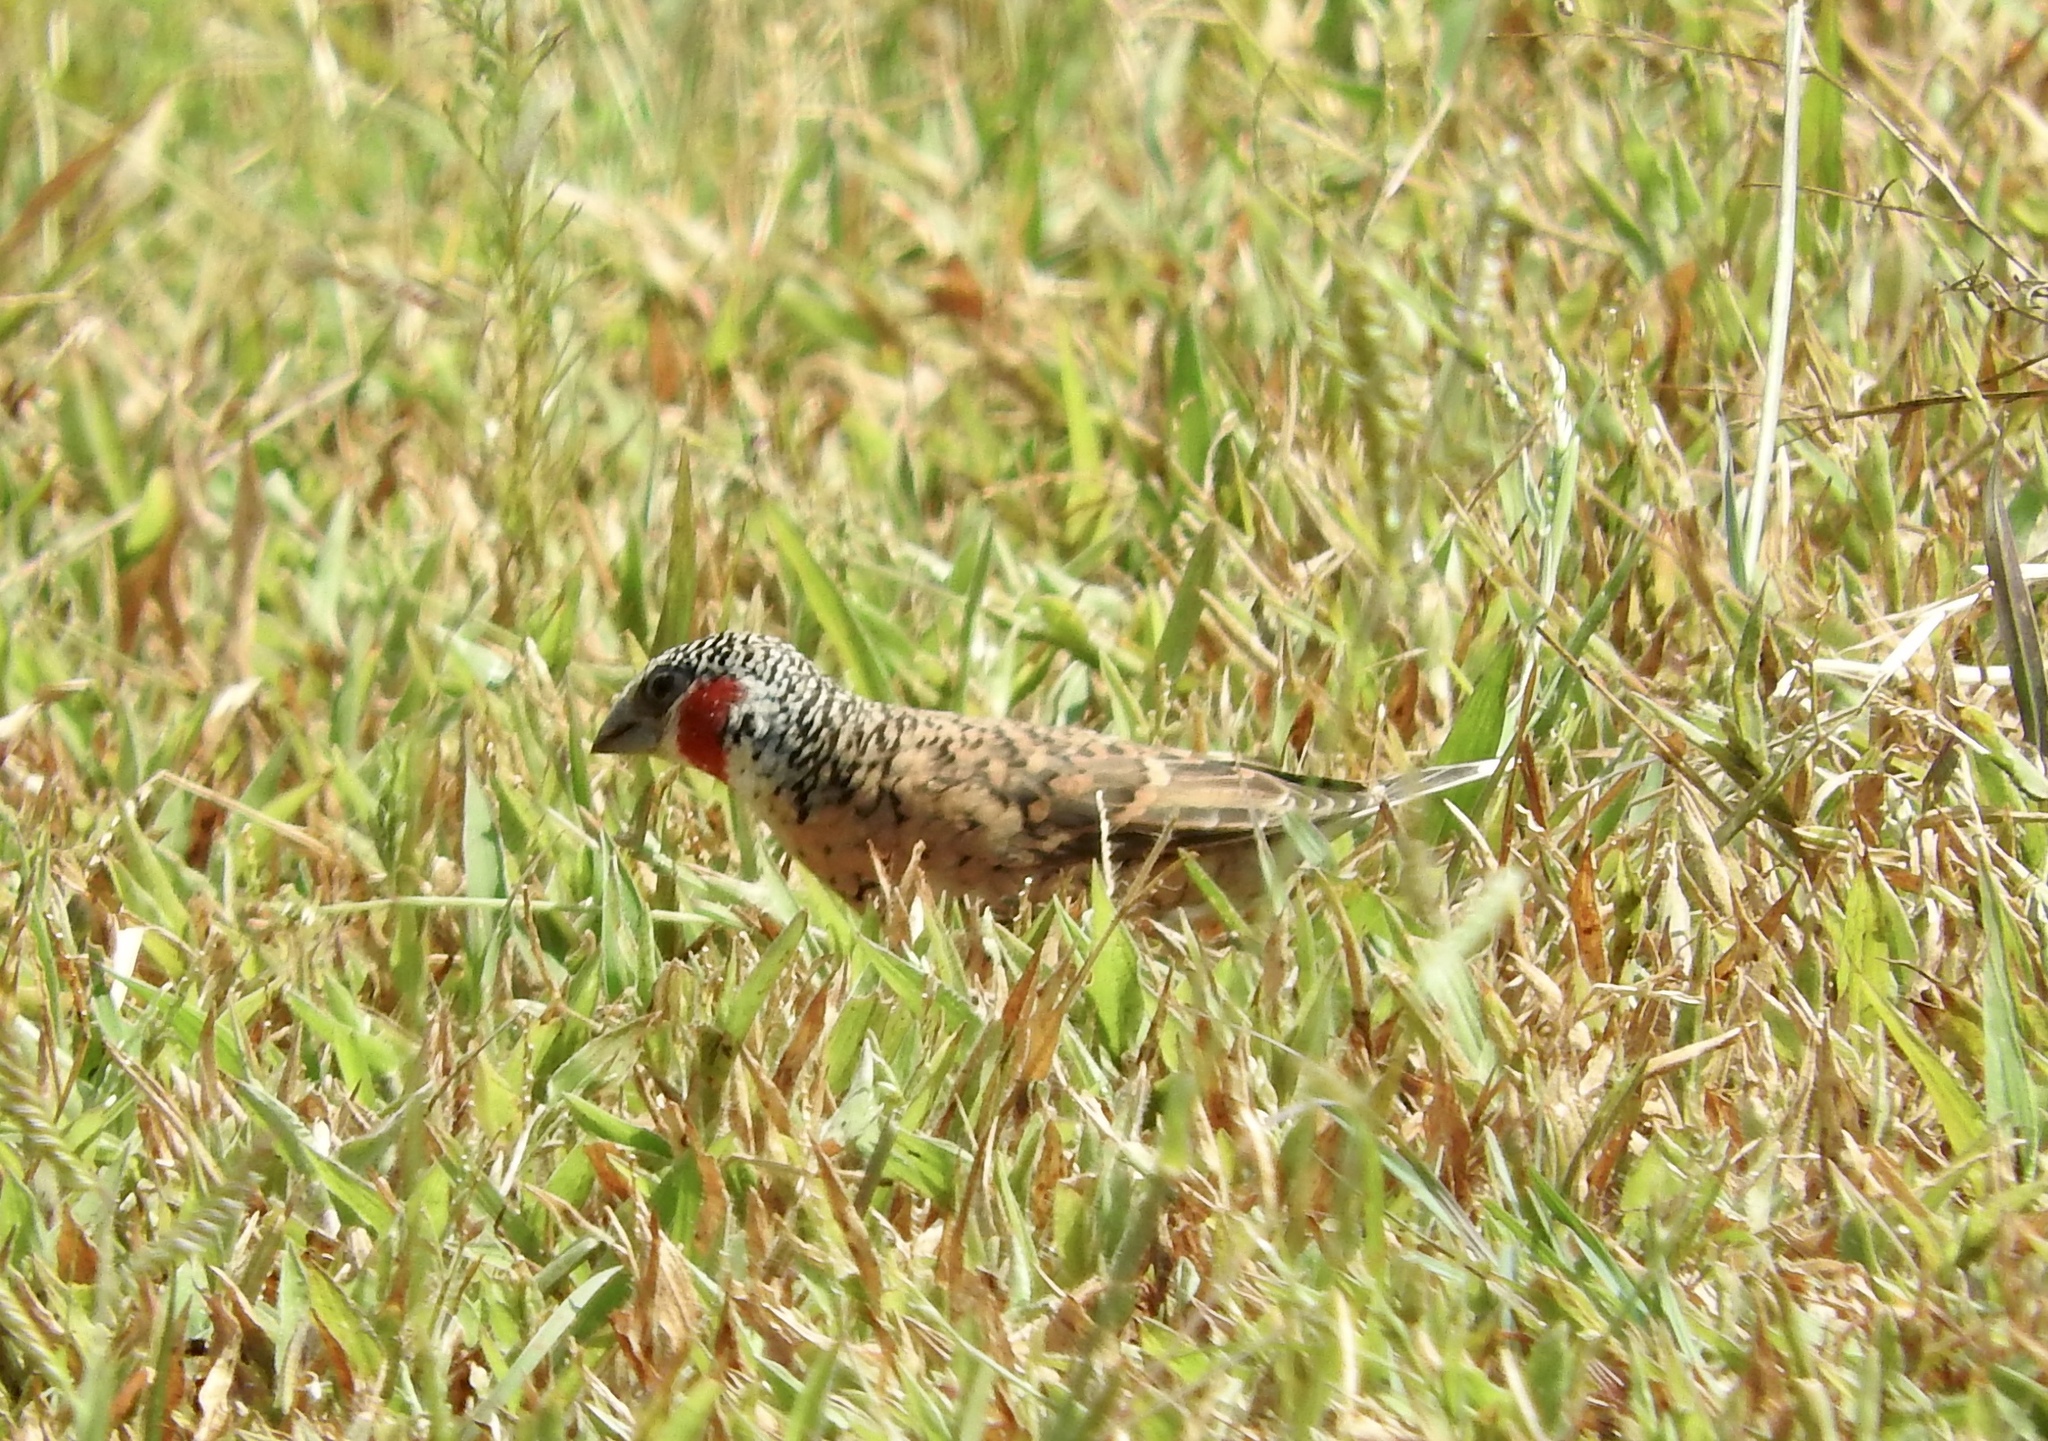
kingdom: Animalia
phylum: Chordata
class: Aves
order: Passeriformes
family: Estrildidae
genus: Amadina
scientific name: Amadina fasciata
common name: Cut-throat finch
